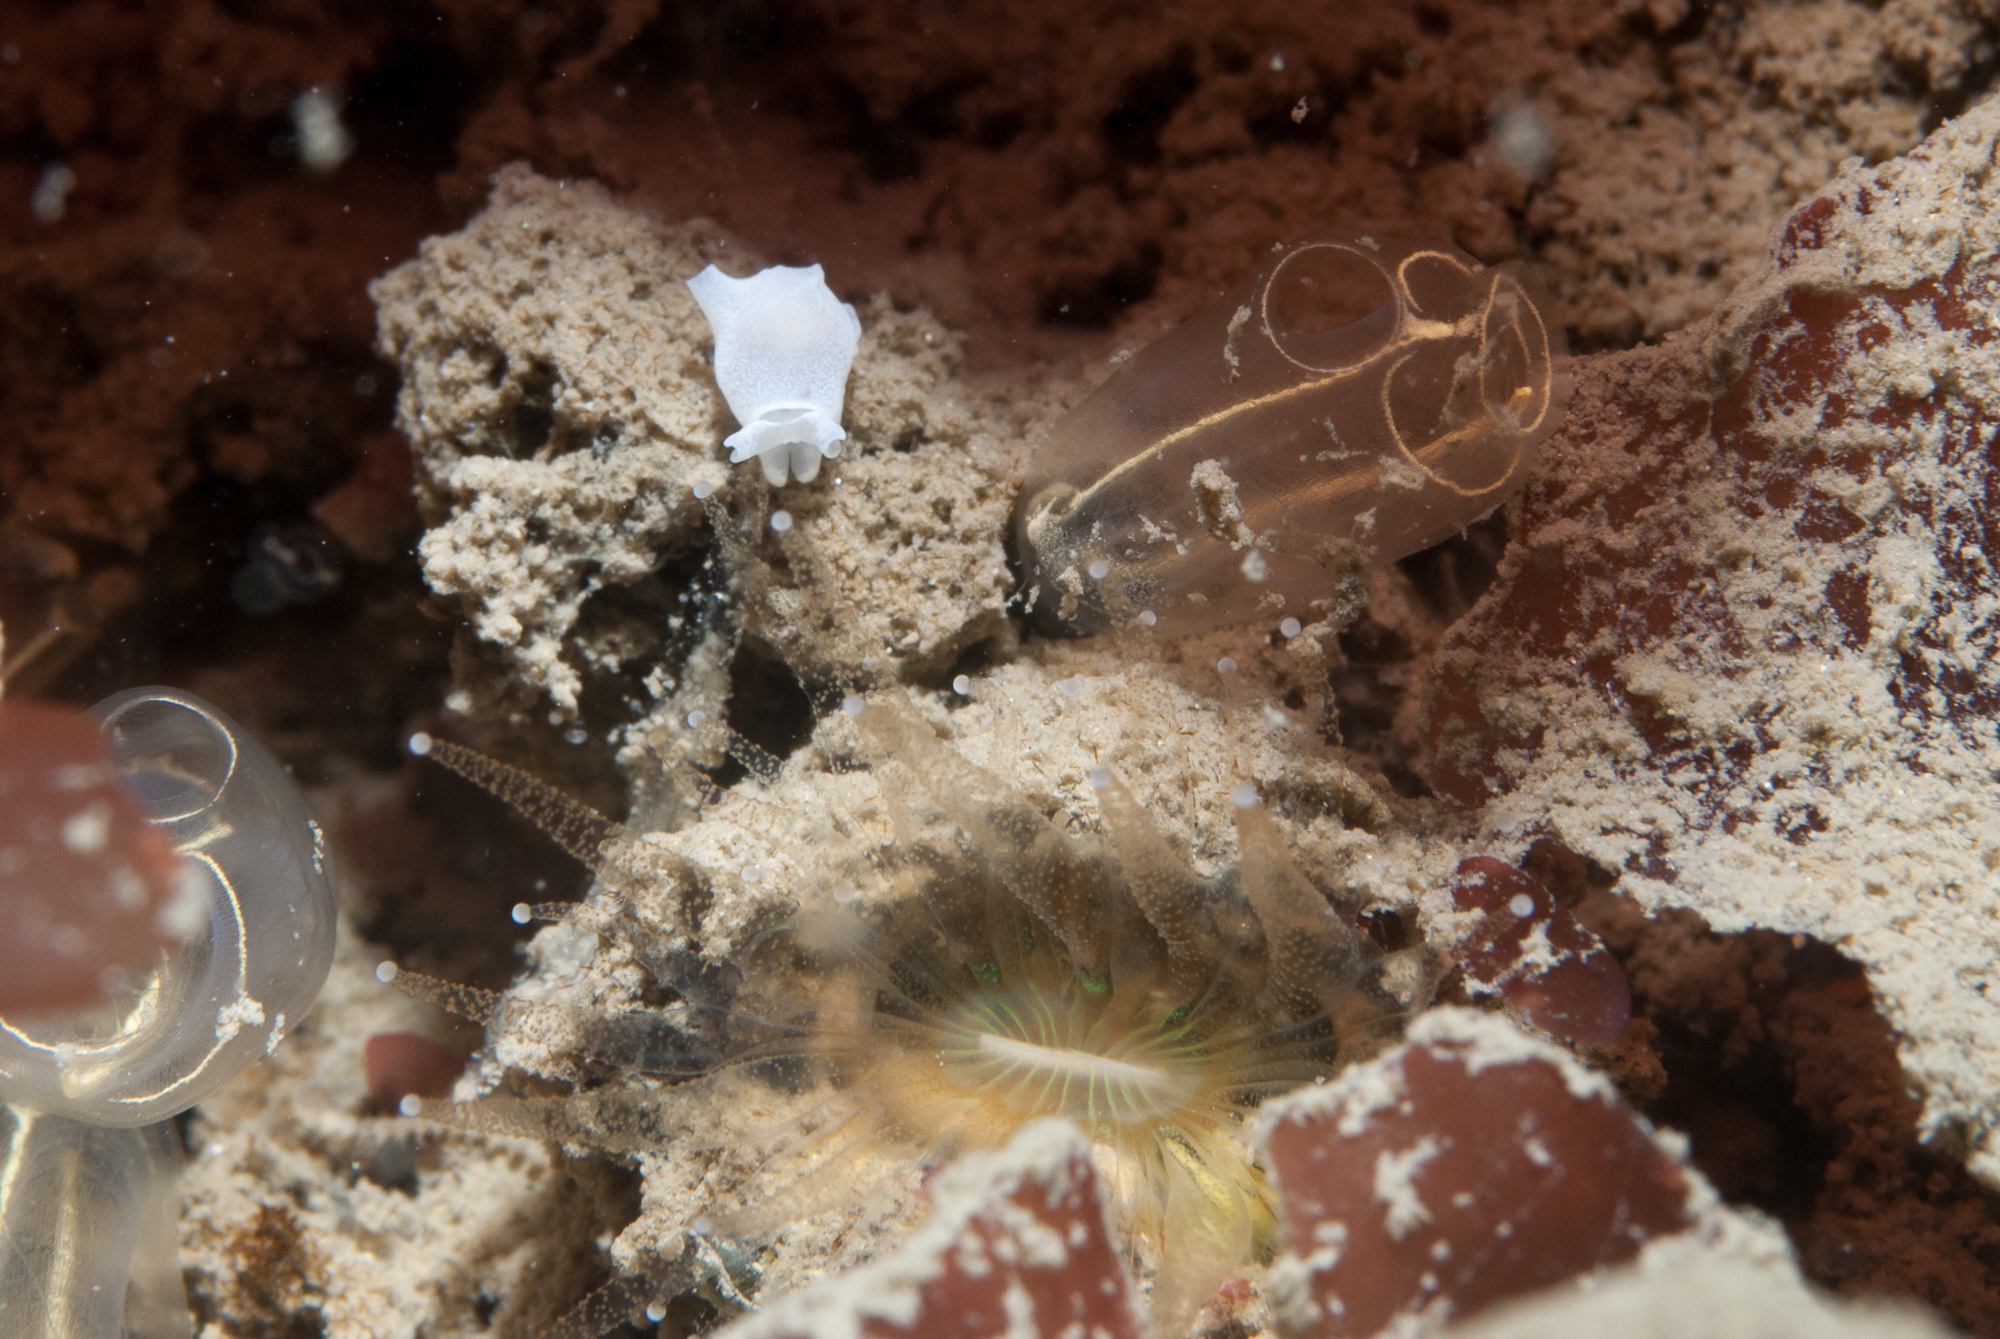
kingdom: Animalia
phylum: Mollusca
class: Gastropoda
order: Cephalaspidea
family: Colpodaspididae
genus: Colpodaspis
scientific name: Colpodaspis pusilla
